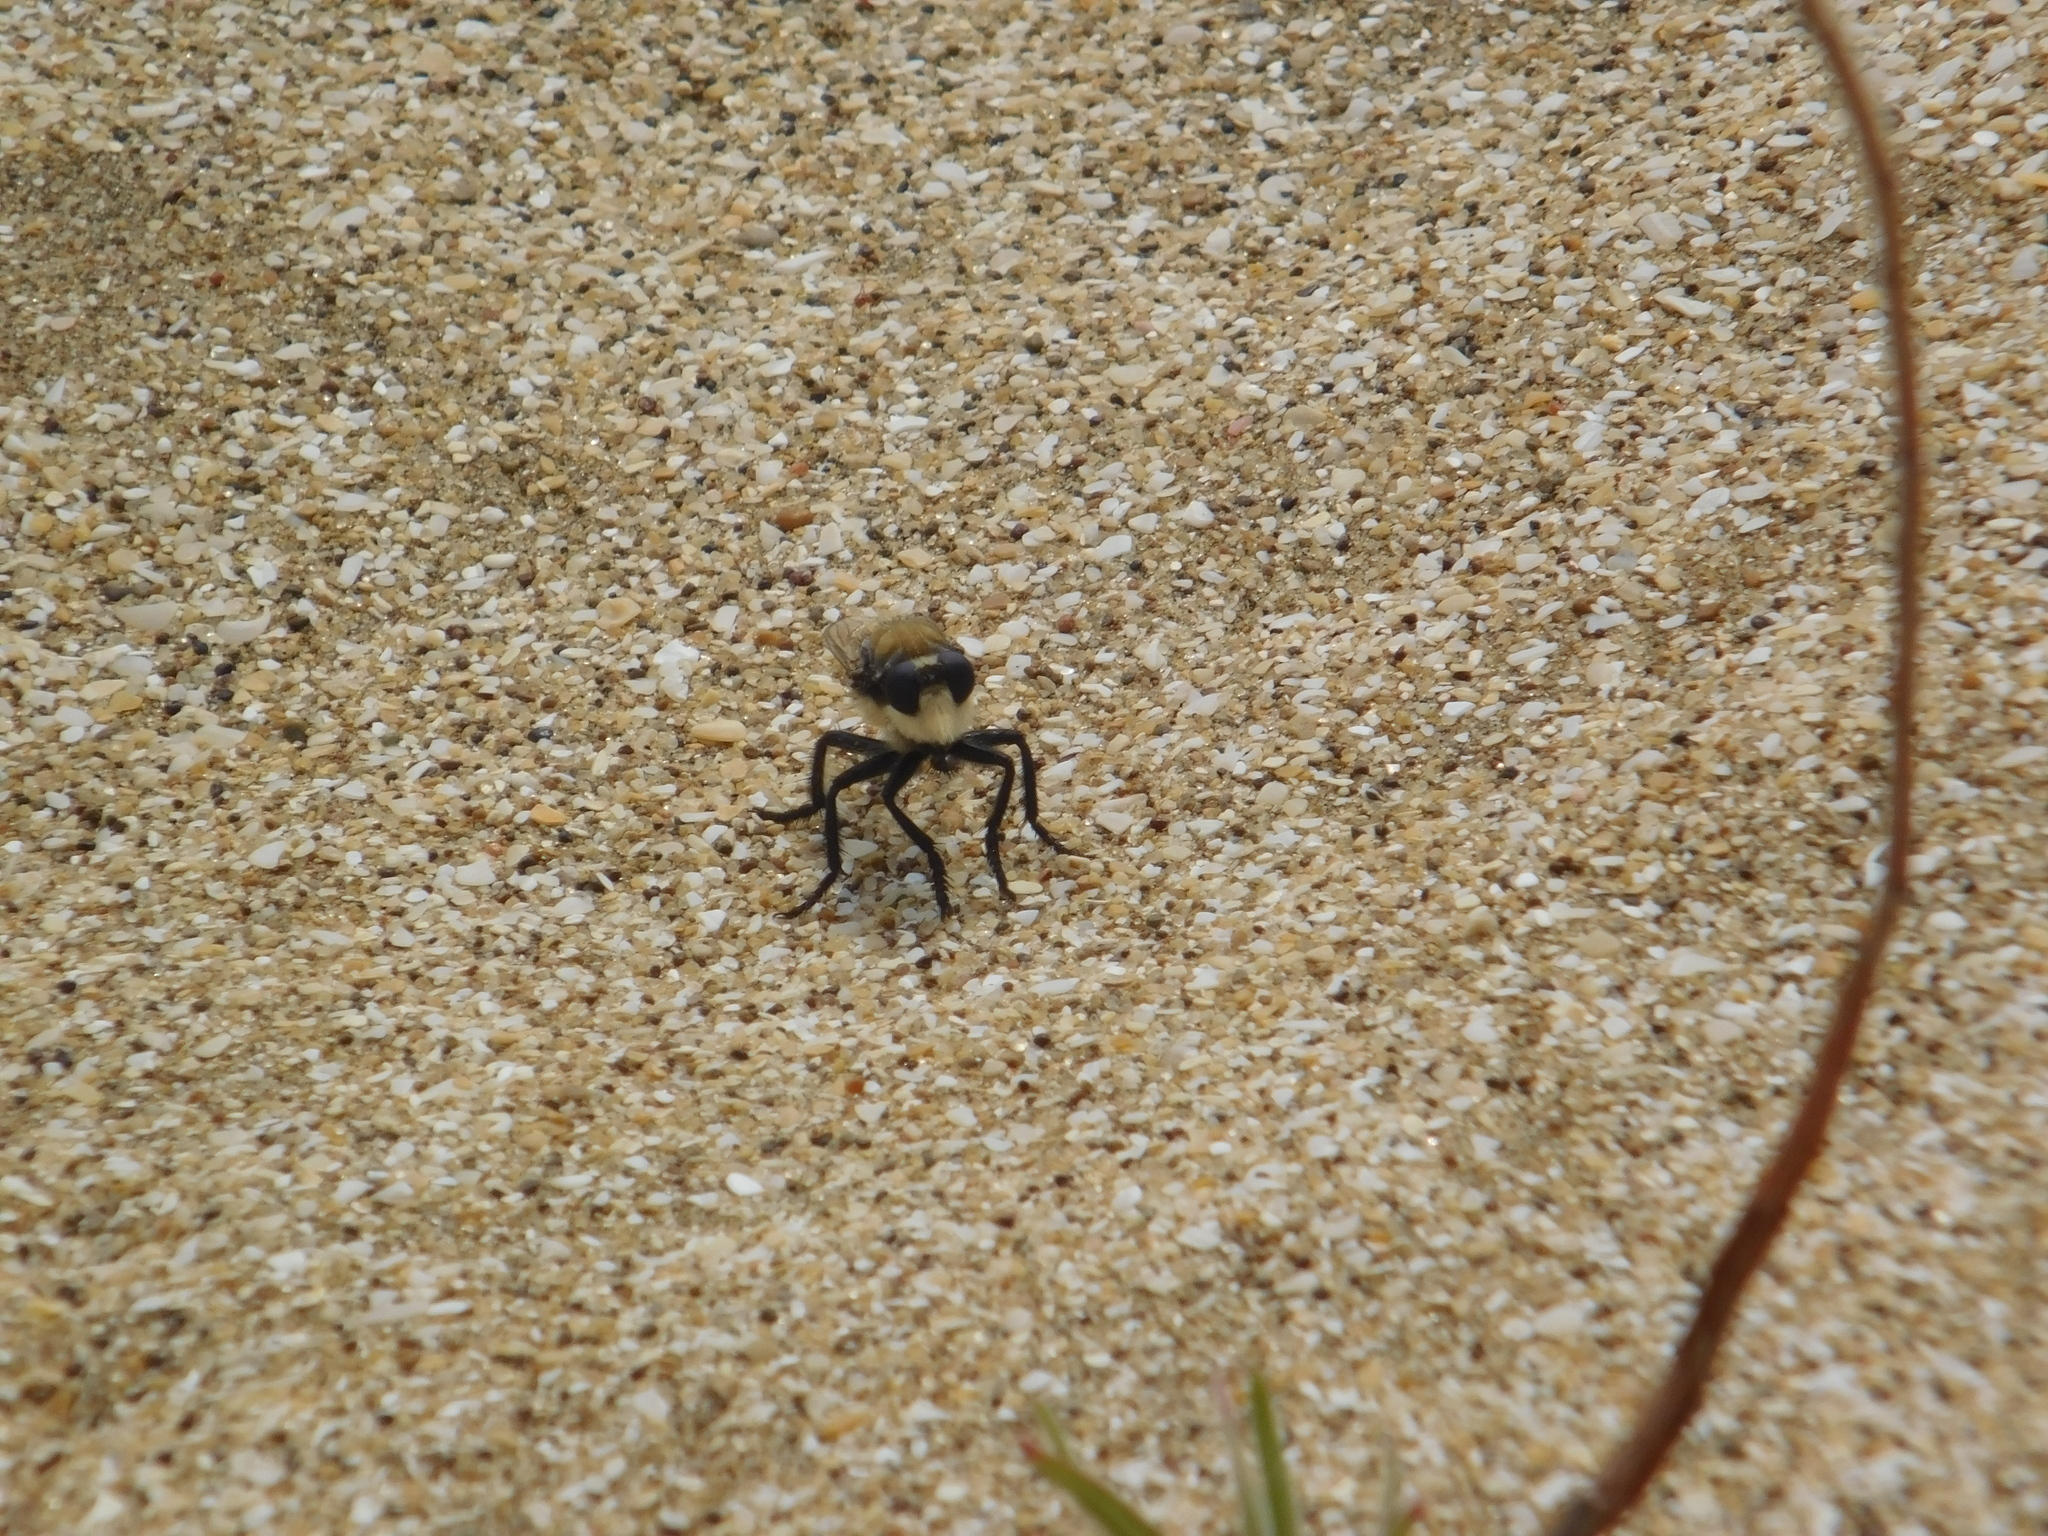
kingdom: Animalia
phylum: Arthropoda
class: Insecta
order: Diptera
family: Asilidae
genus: Eccritosia
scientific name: Eccritosia rubriventris
